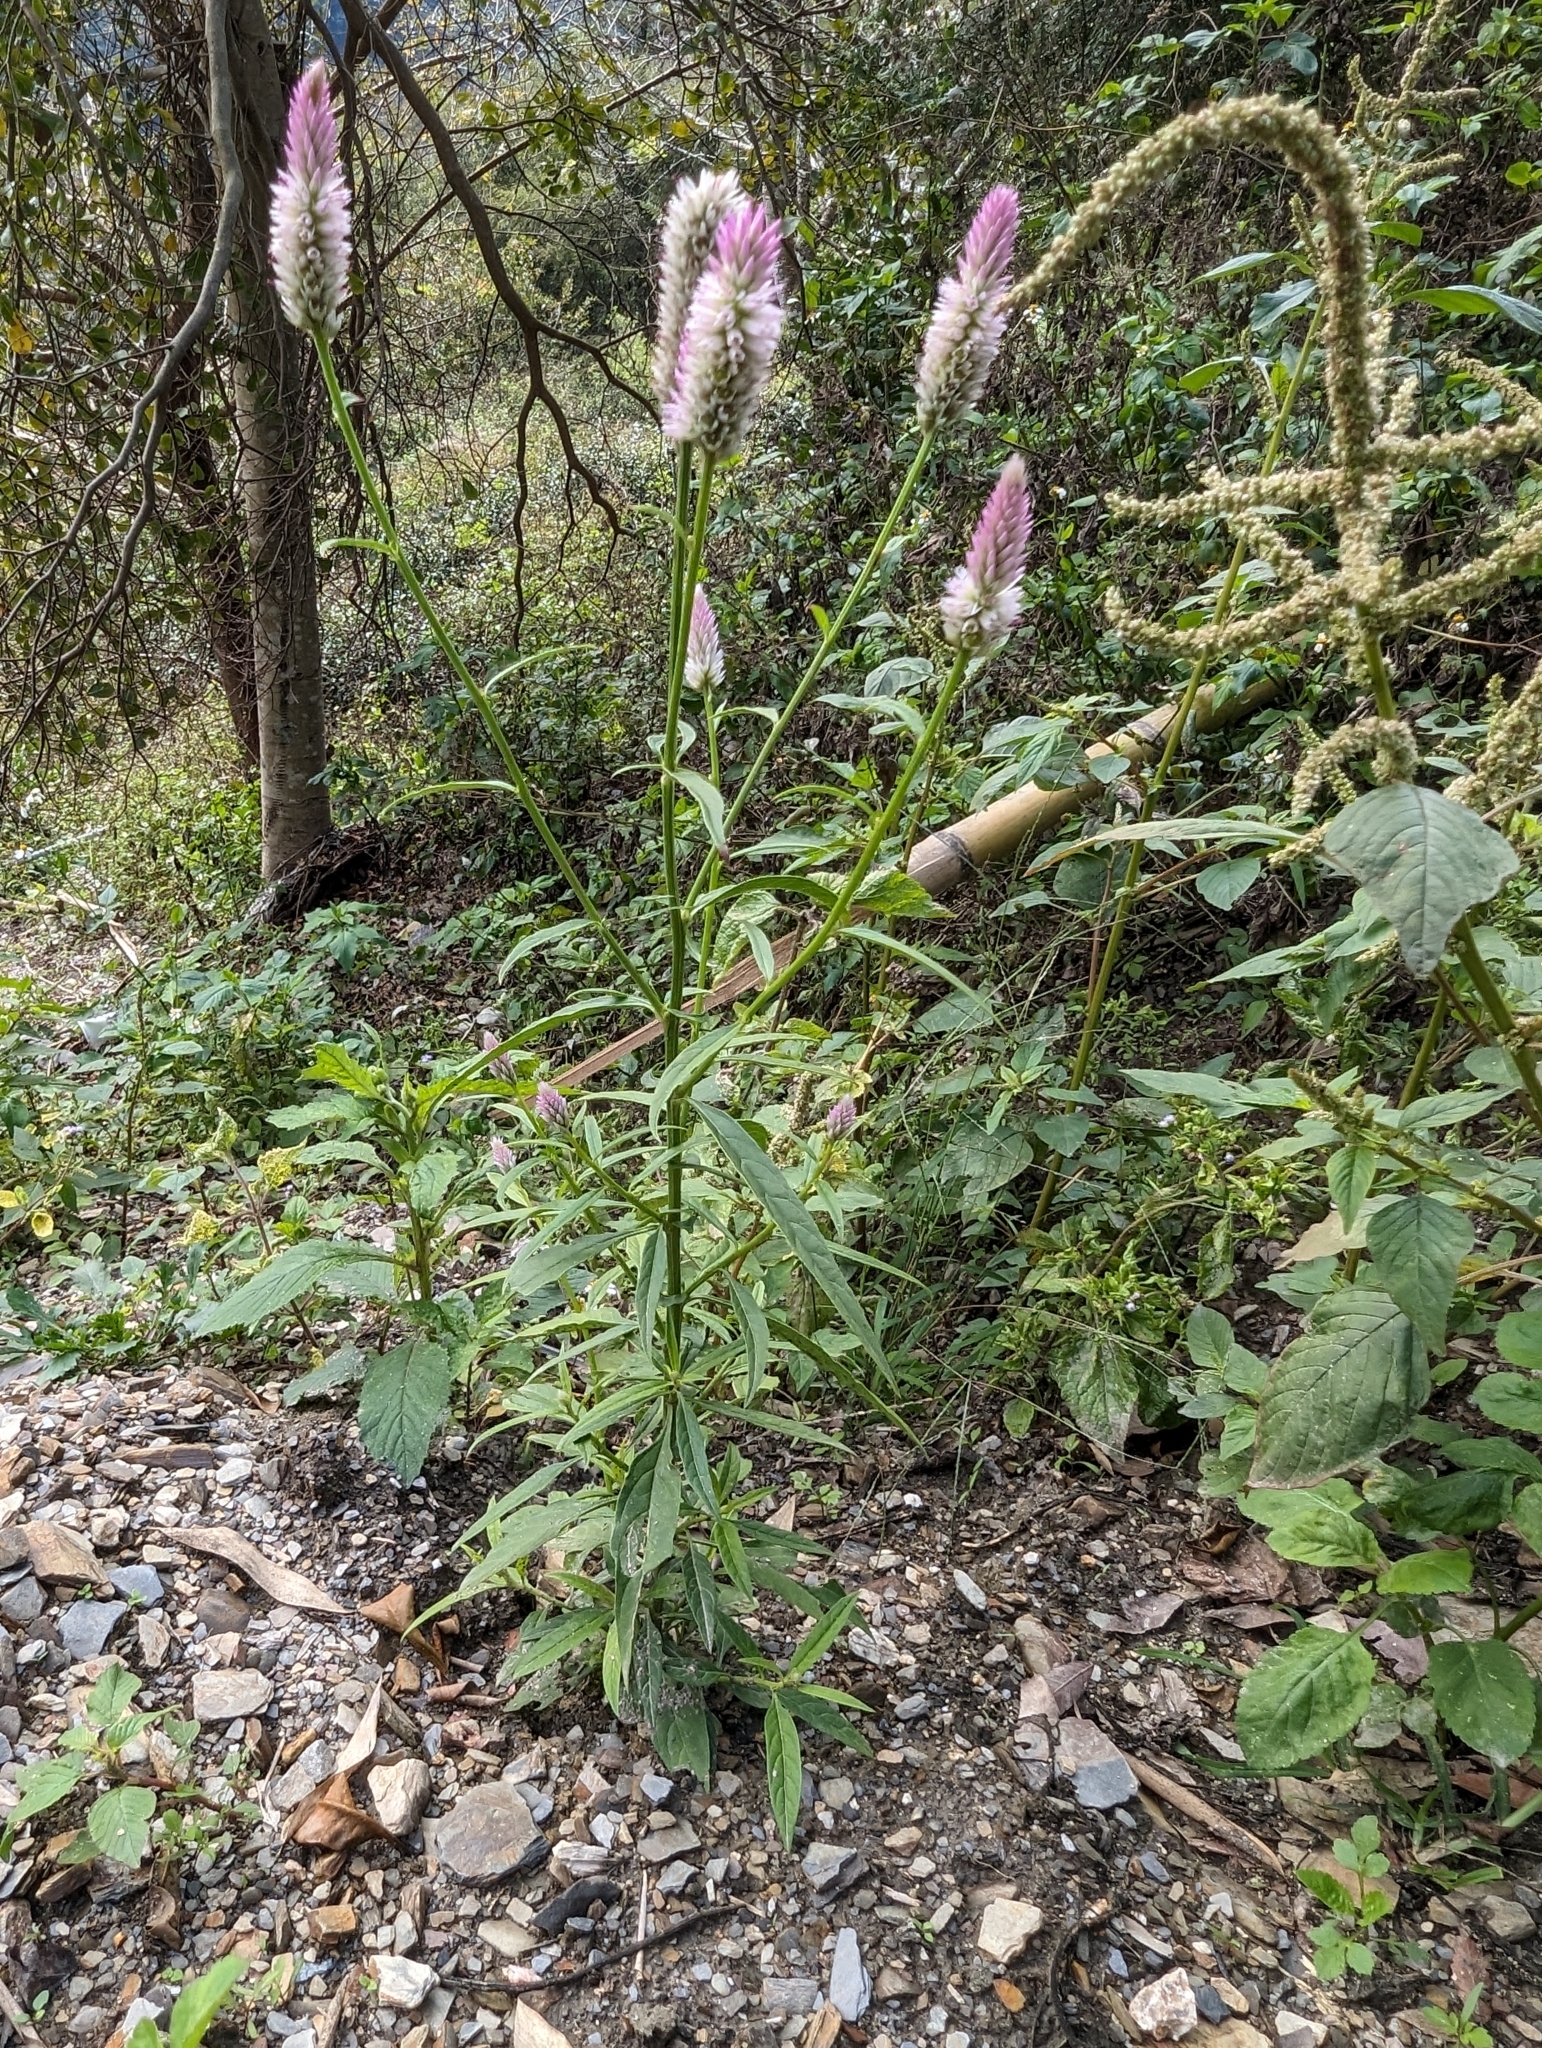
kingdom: Plantae
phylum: Tracheophyta
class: Magnoliopsida
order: Caryophyllales
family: Amaranthaceae
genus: Celosia
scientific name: Celosia argentea
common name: Feather cockscomb
